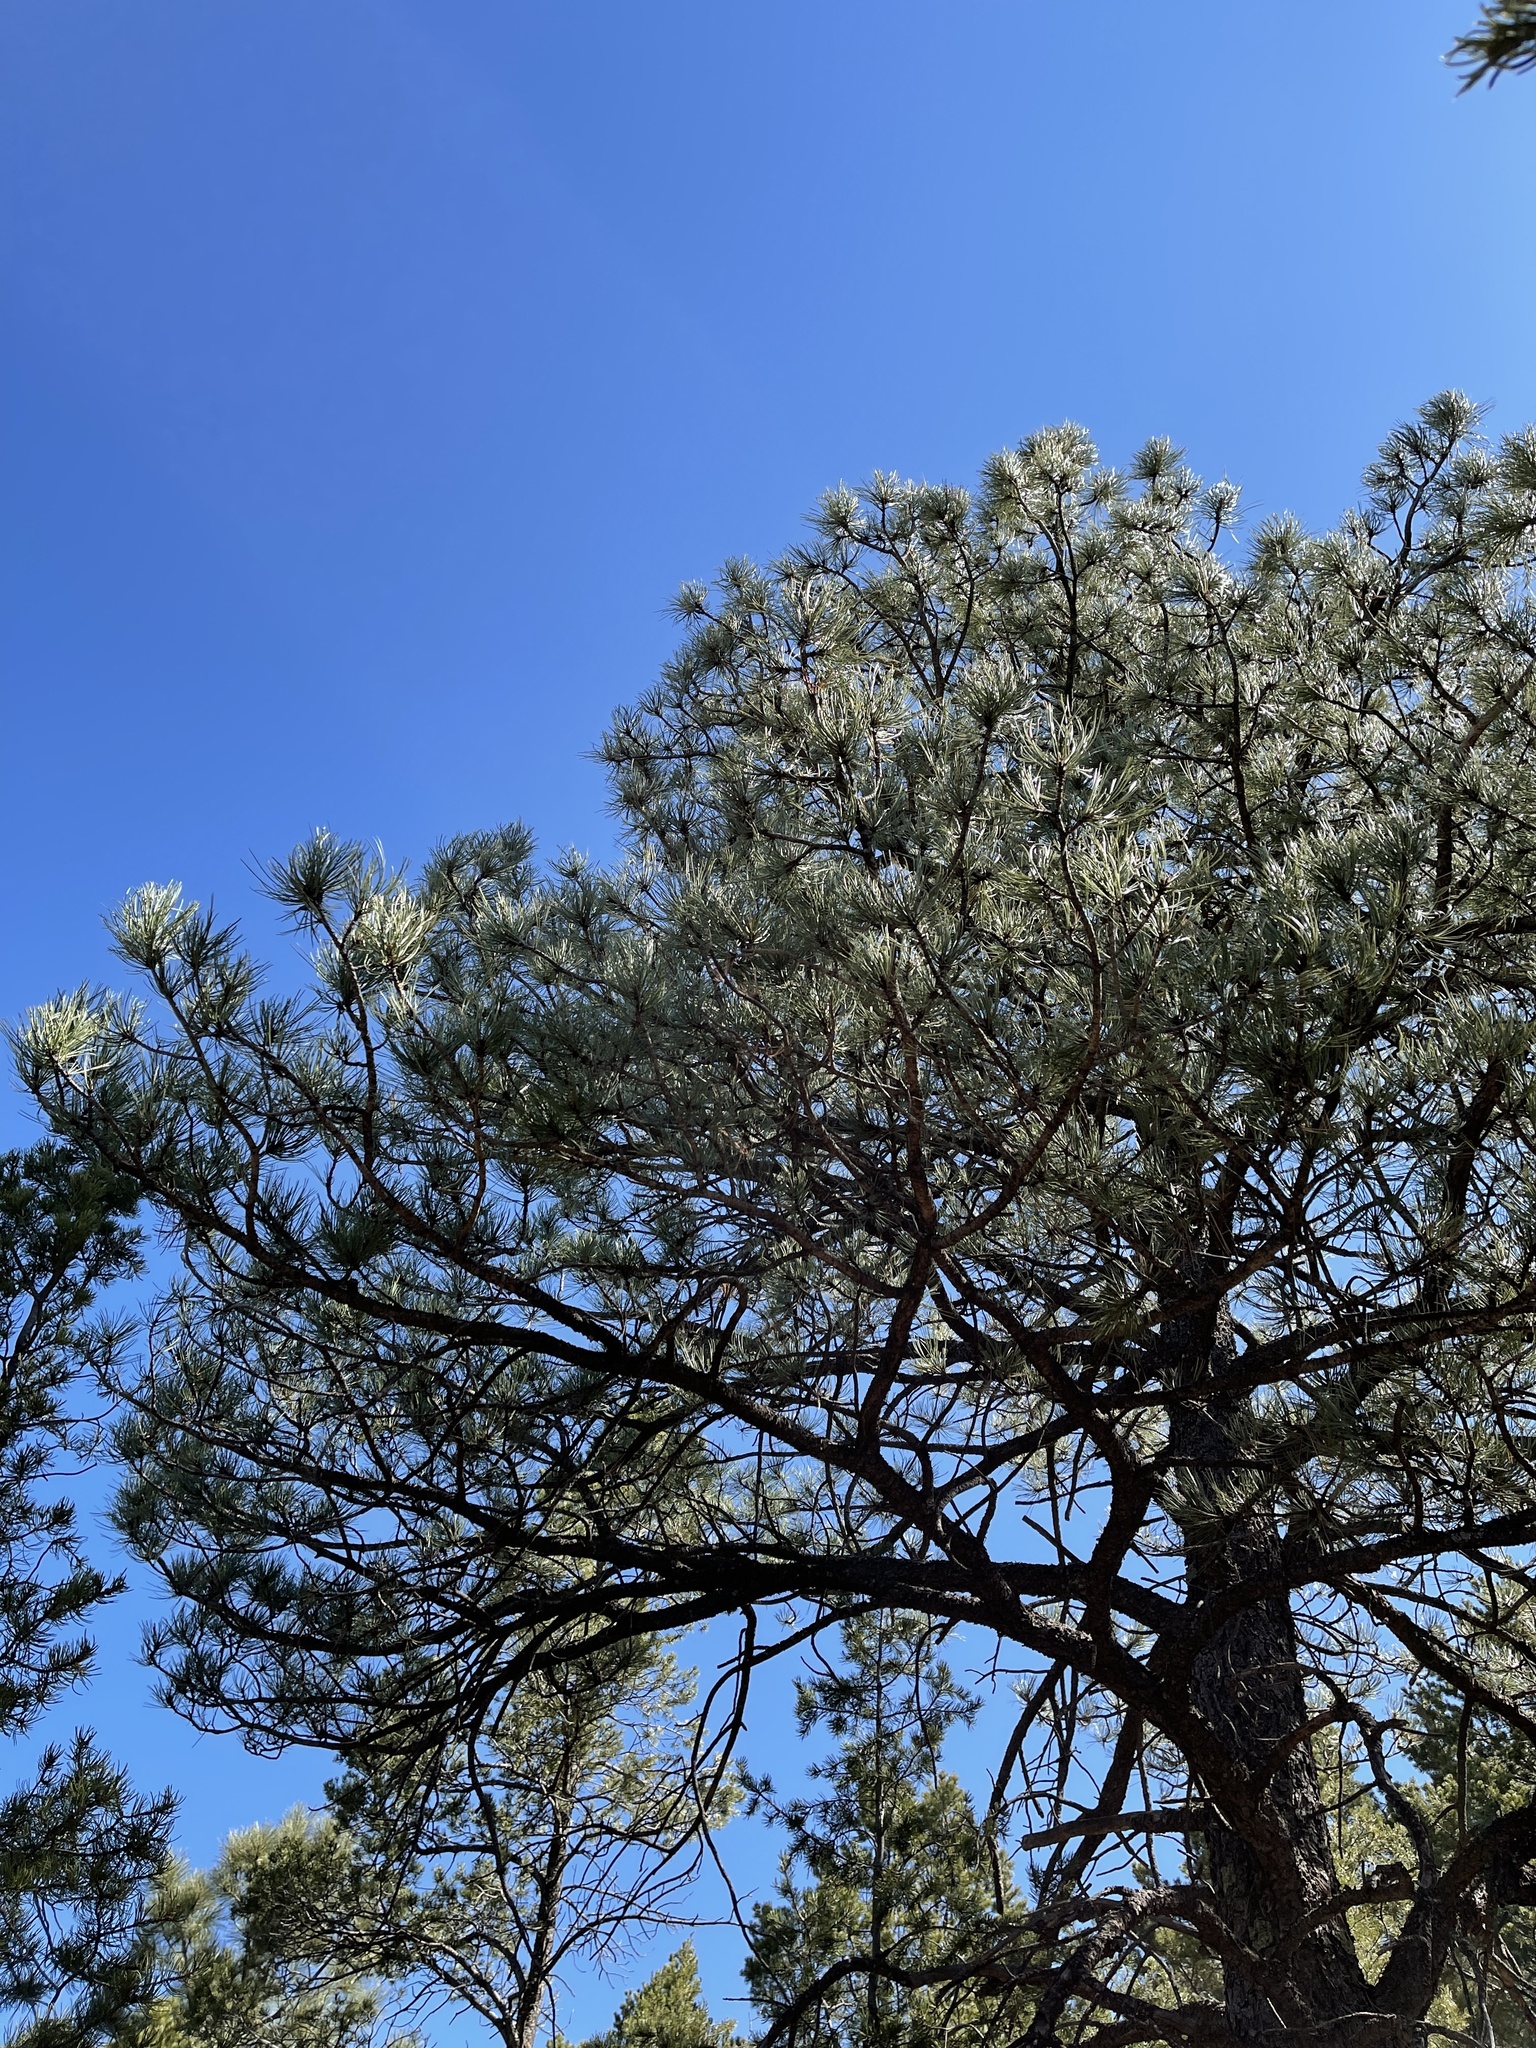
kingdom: Plantae
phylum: Tracheophyta
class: Pinopsida
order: Pinales
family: Pinaceae
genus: Pinus
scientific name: Pinus ponderosa
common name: Western yellow-pine
